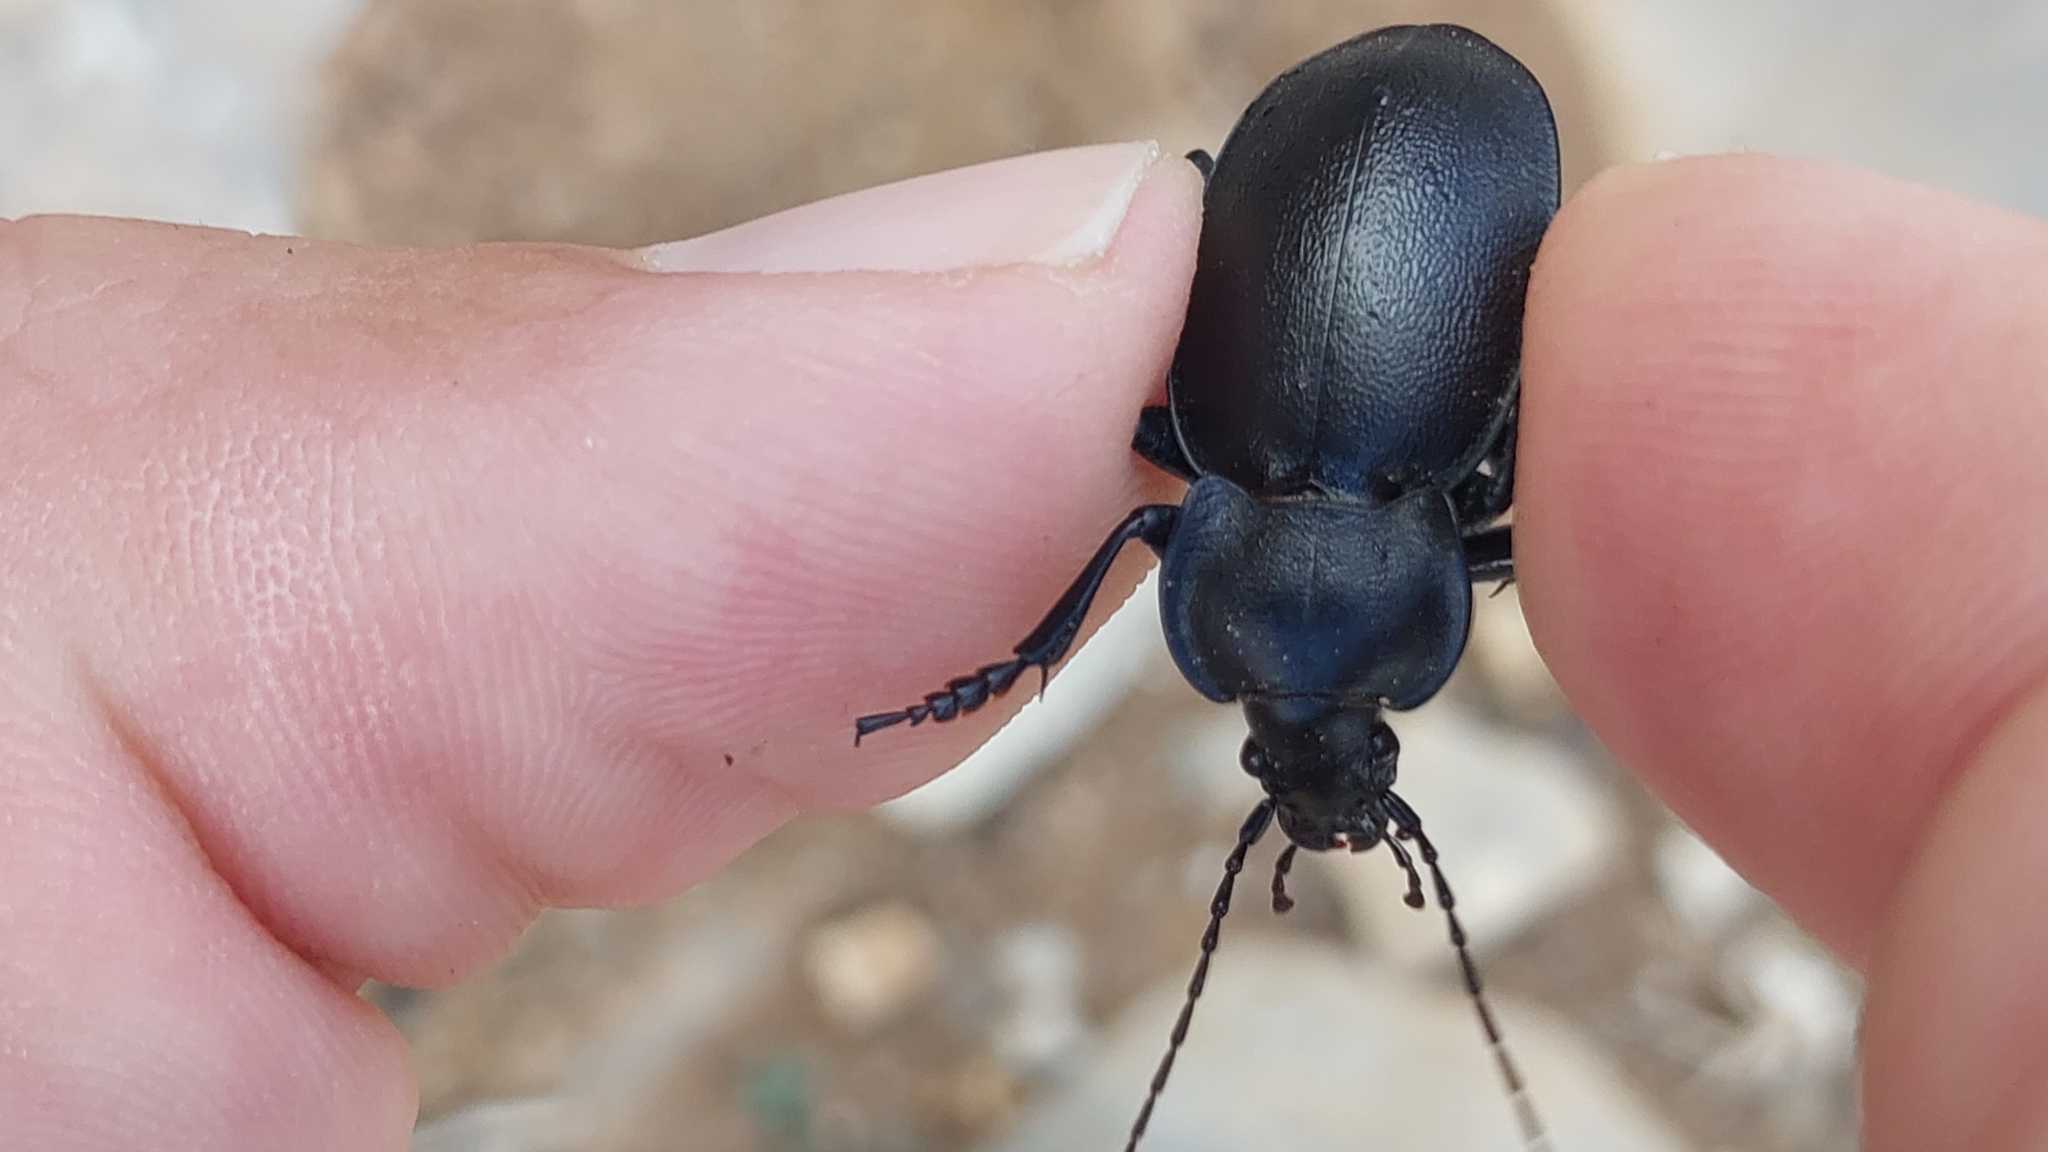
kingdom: Animalia
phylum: Arthropoda
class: Insecta
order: Coleoptera
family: Carabidae
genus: Carabus
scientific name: Carabus banonii
